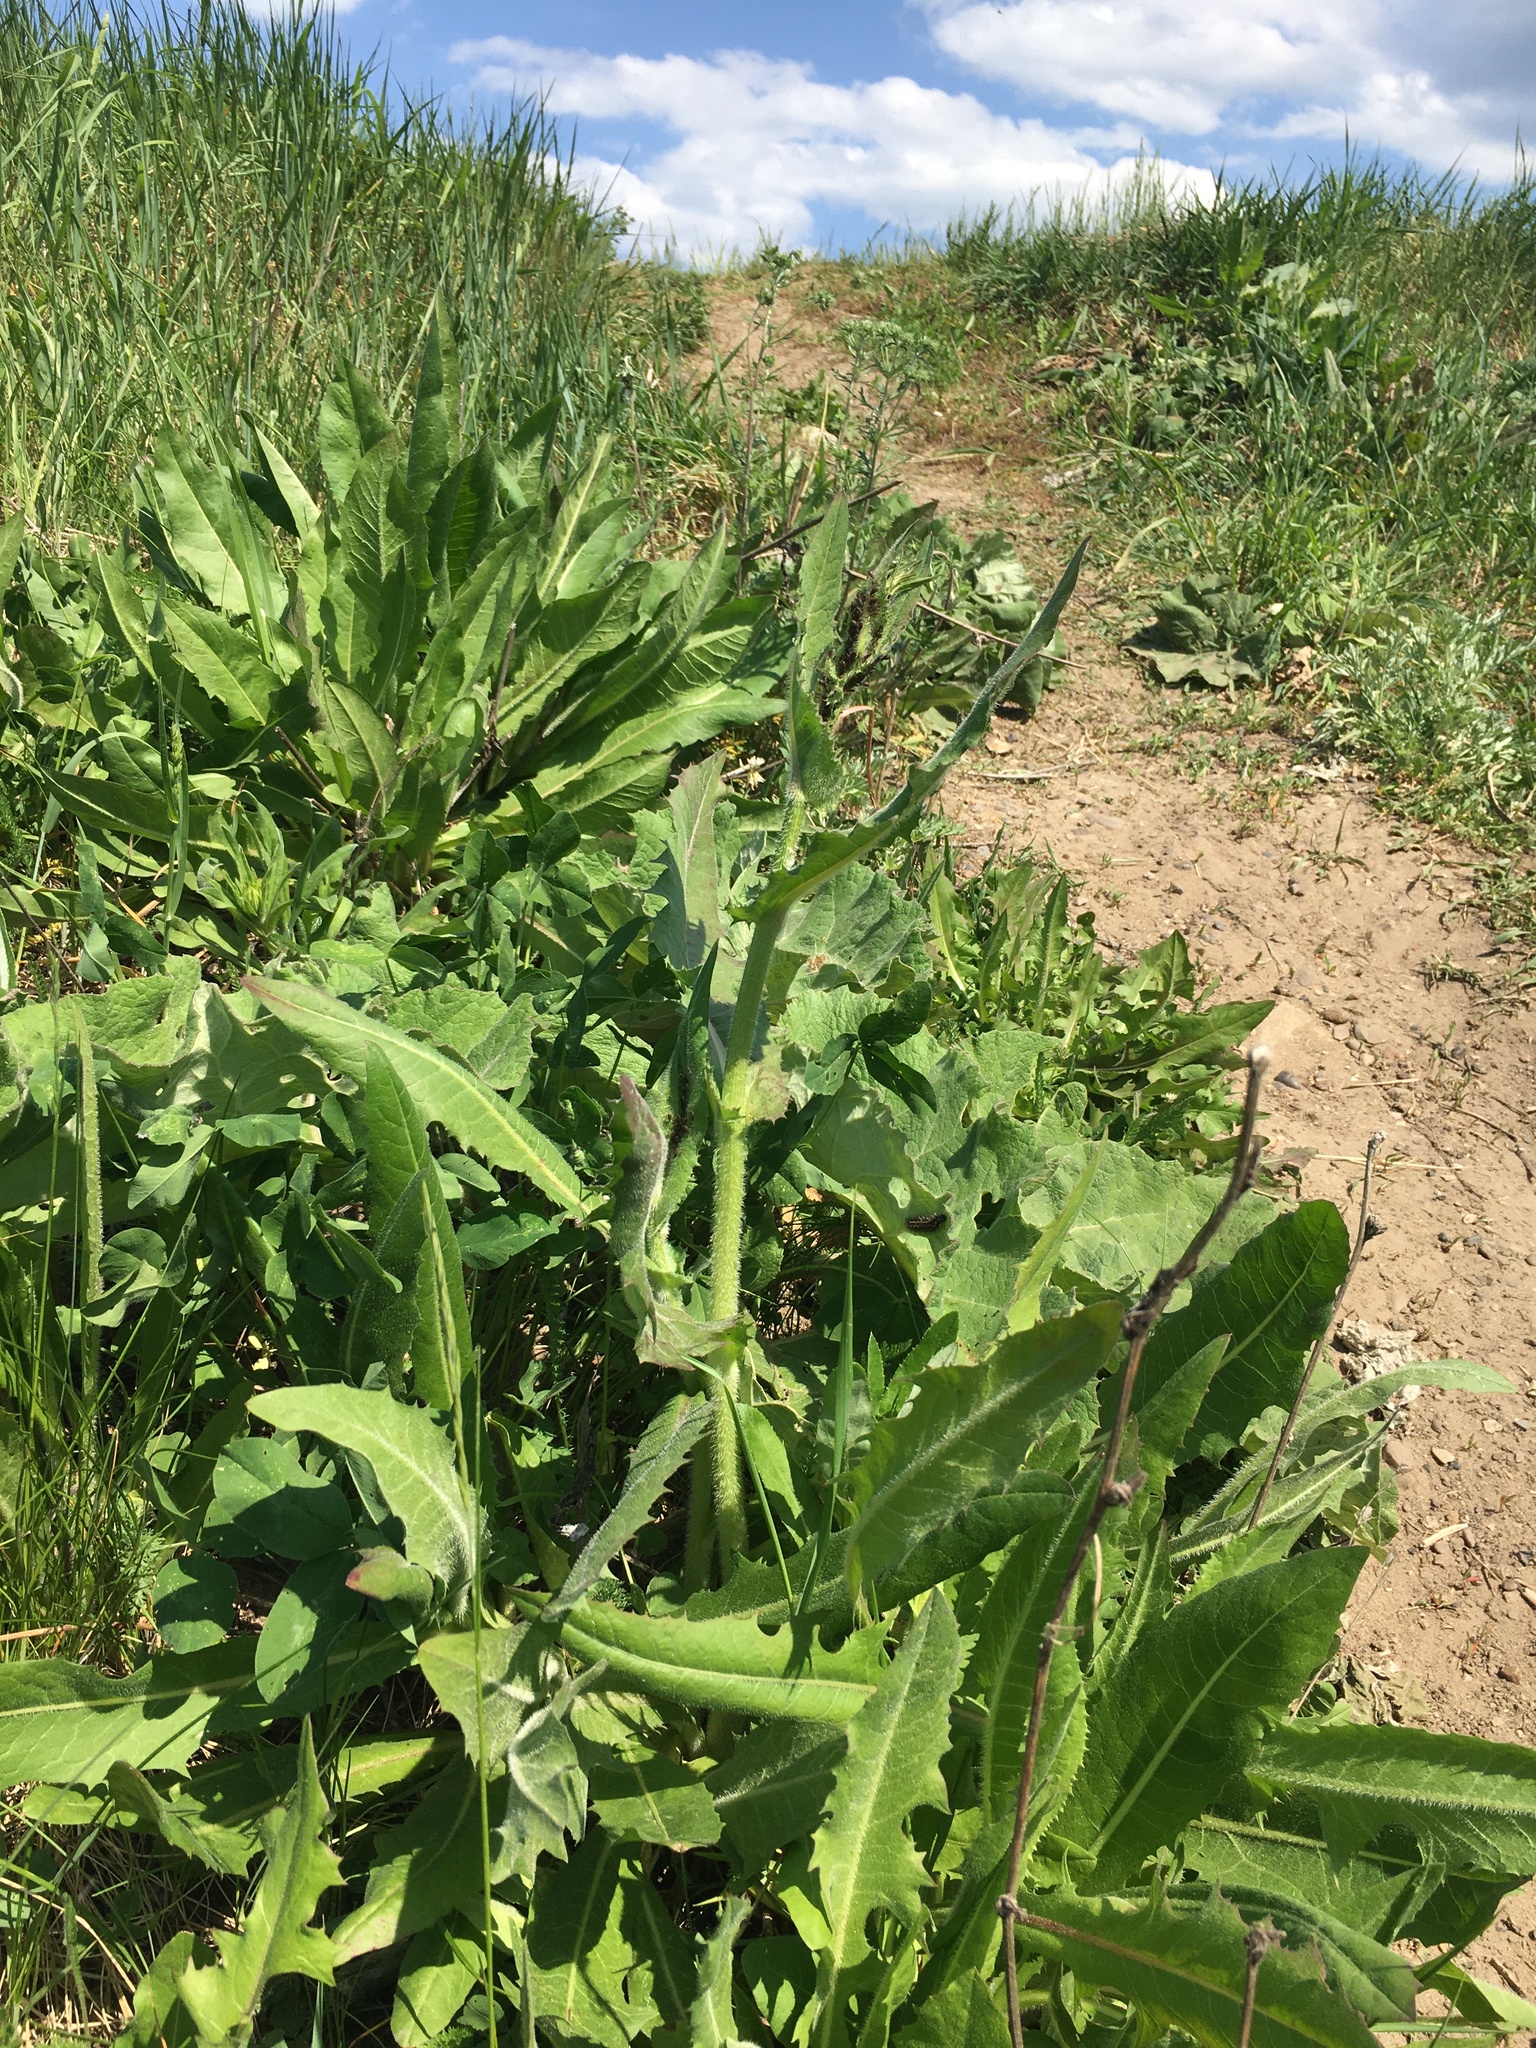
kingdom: Plantae
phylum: Tracheophyta
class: Magnoliopsida
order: Asterales
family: Asteraceae
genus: Cichorium
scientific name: Cichorium intybus
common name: Chicory
